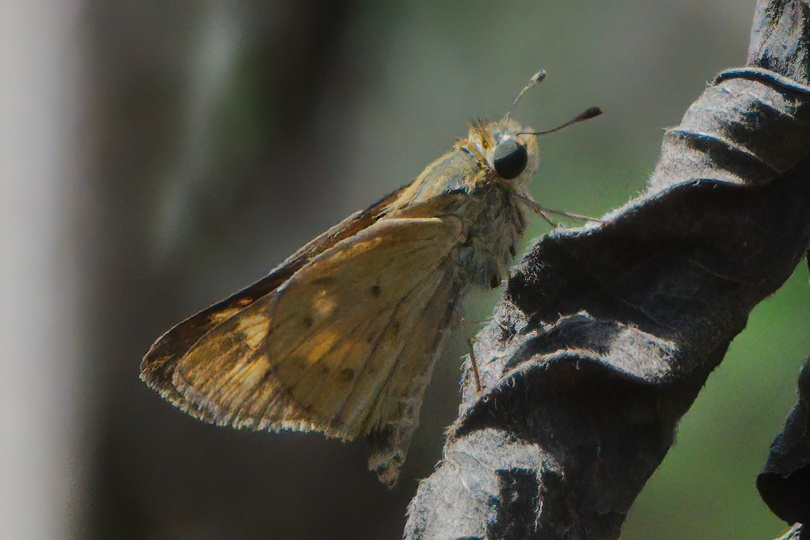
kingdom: Animalia
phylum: Arthropoda
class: Insecta
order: Lepidoptera
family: Hesperiidae
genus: Hylephila
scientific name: Hylephila phyleus
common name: Fiery skipper
